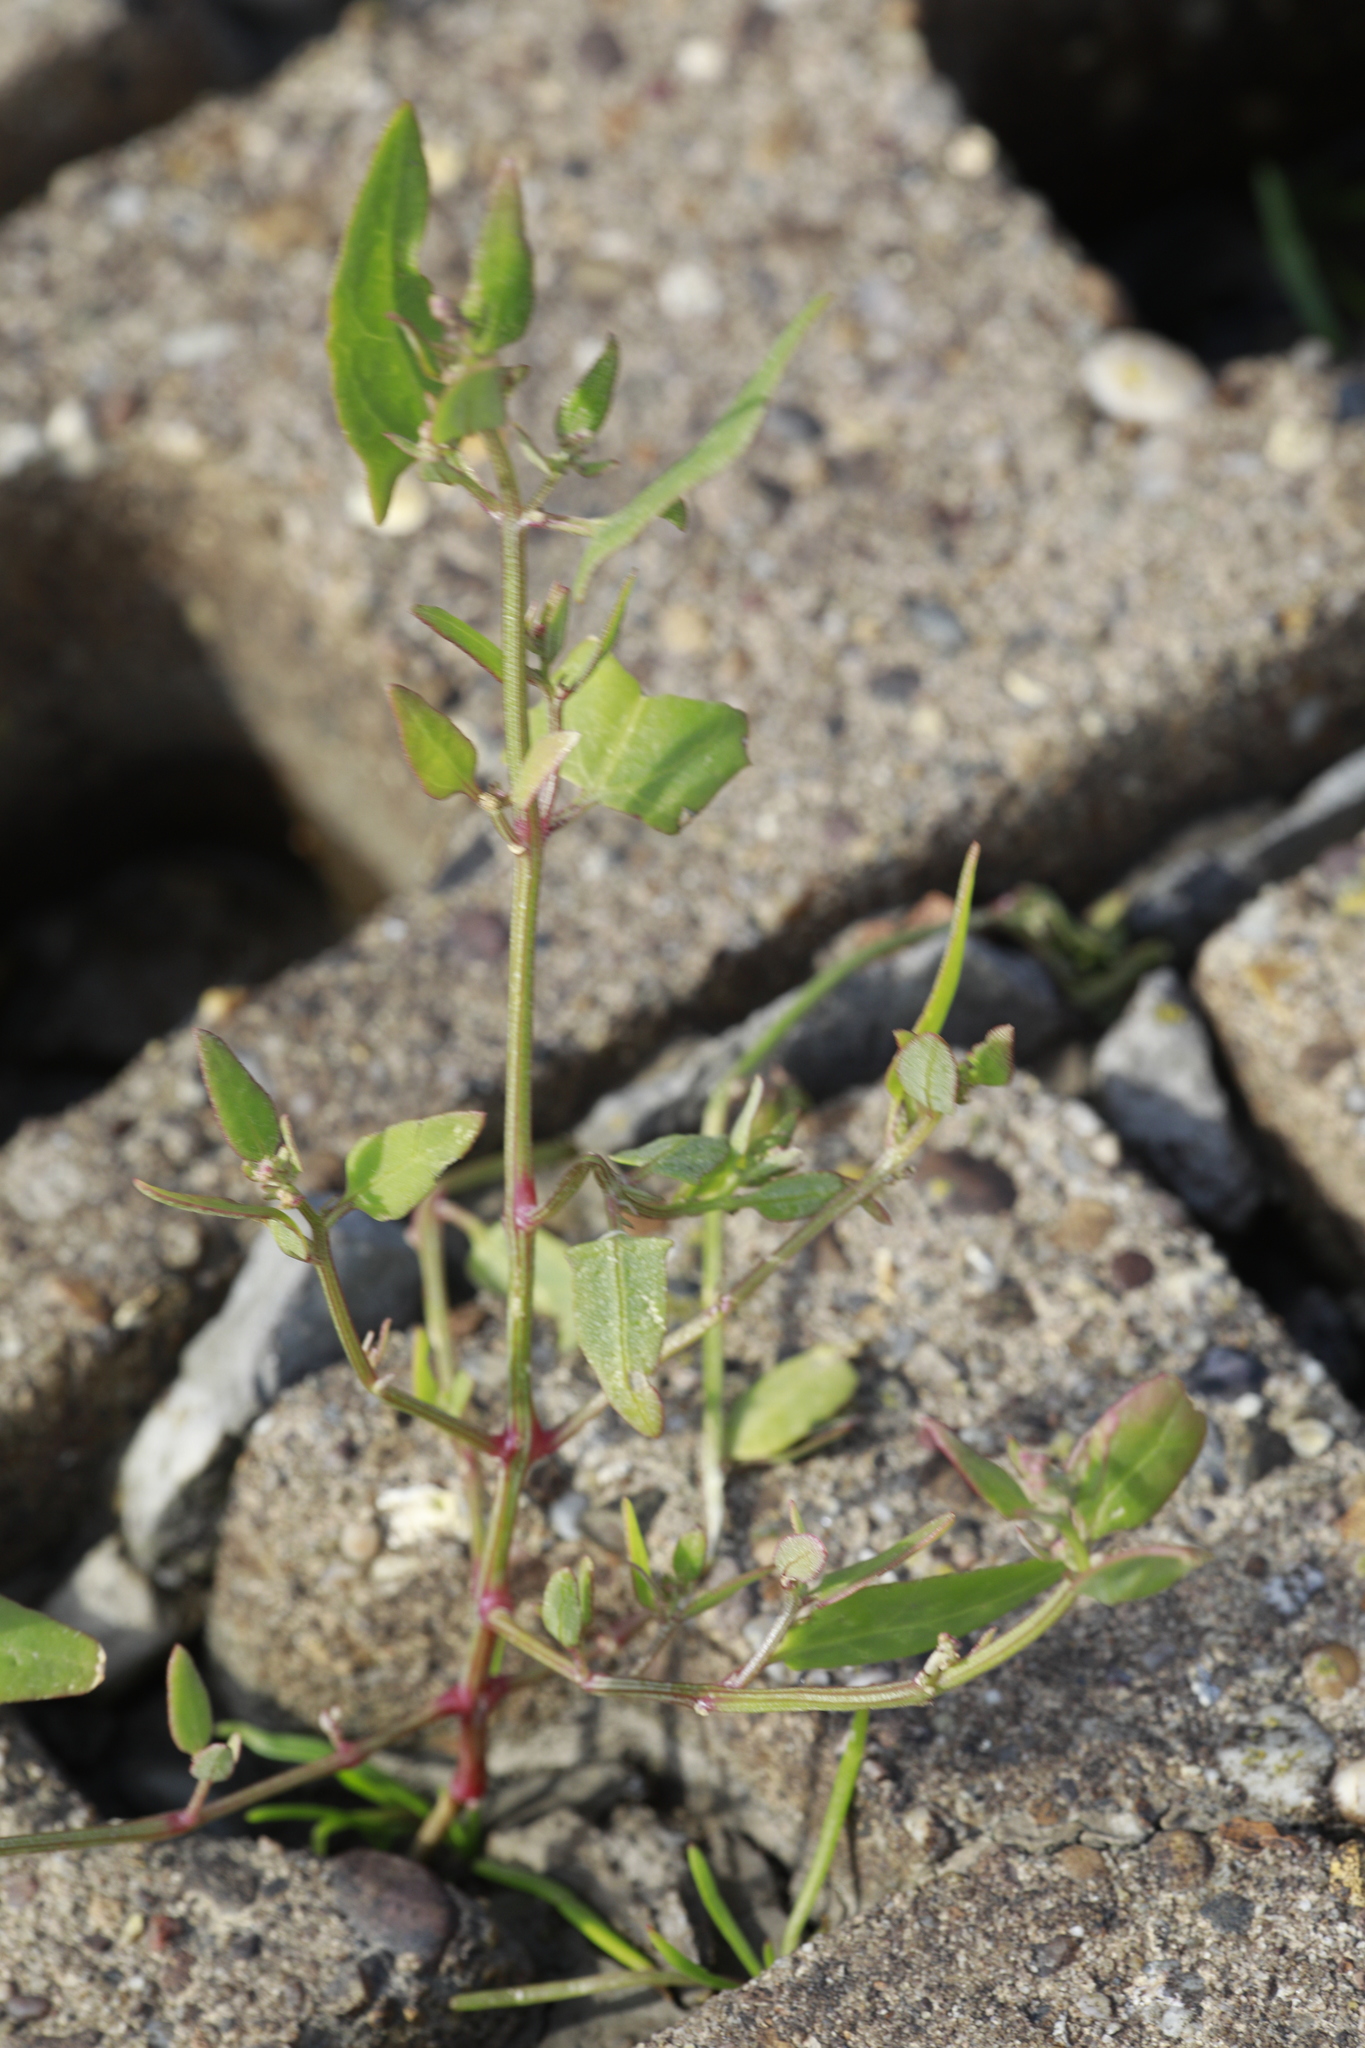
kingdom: Plantae
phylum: Tracheophyta
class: Magnoliopsida
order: Caryophyllales
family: Amaranthaceae
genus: Atriplex
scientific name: Atriplex prostrata
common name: Spear-leaved orache
